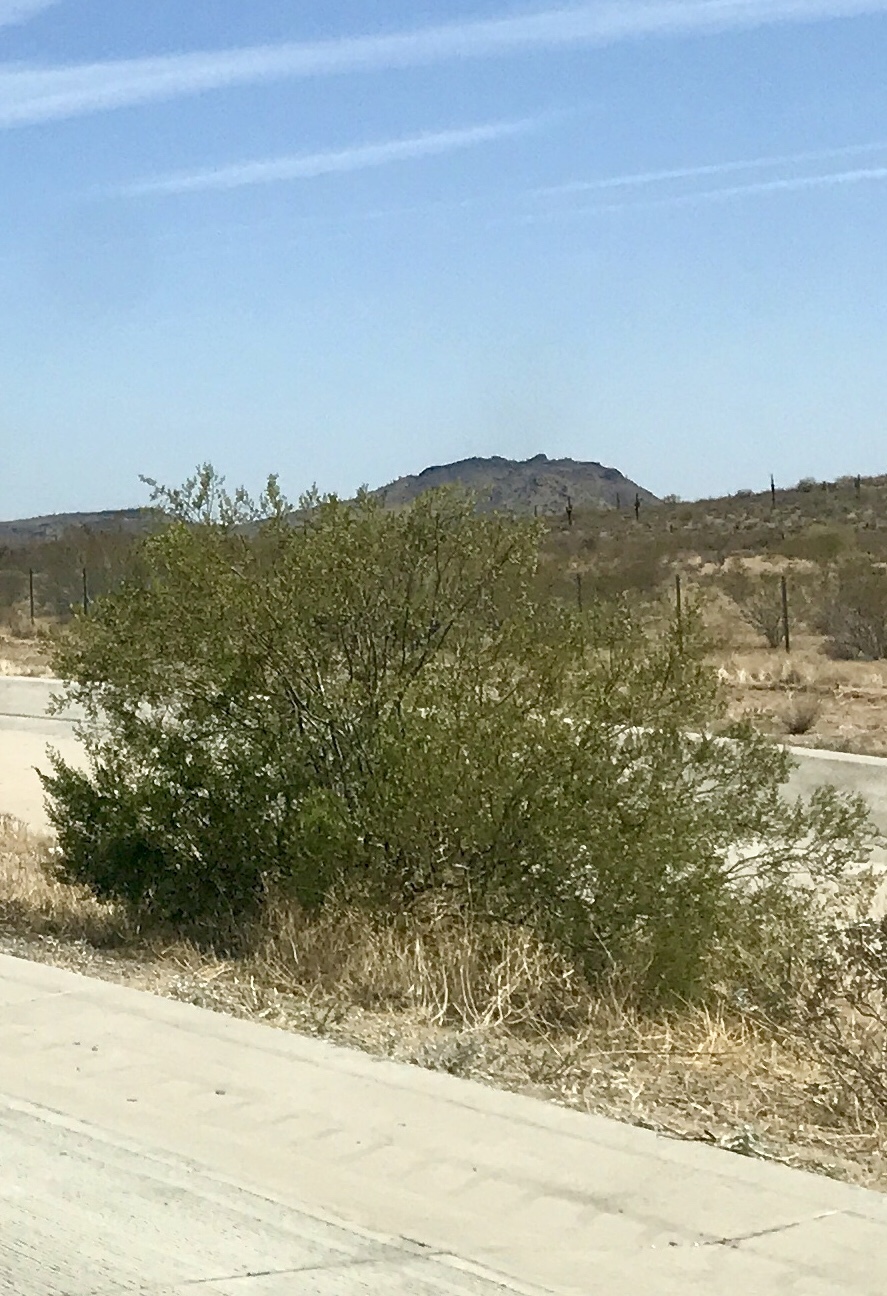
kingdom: Plantae
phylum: Tracheophyta
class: Magnoliopsida
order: Zygophyllales
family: Zygophyllaceae
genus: Larrea
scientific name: Larrea tridentata
